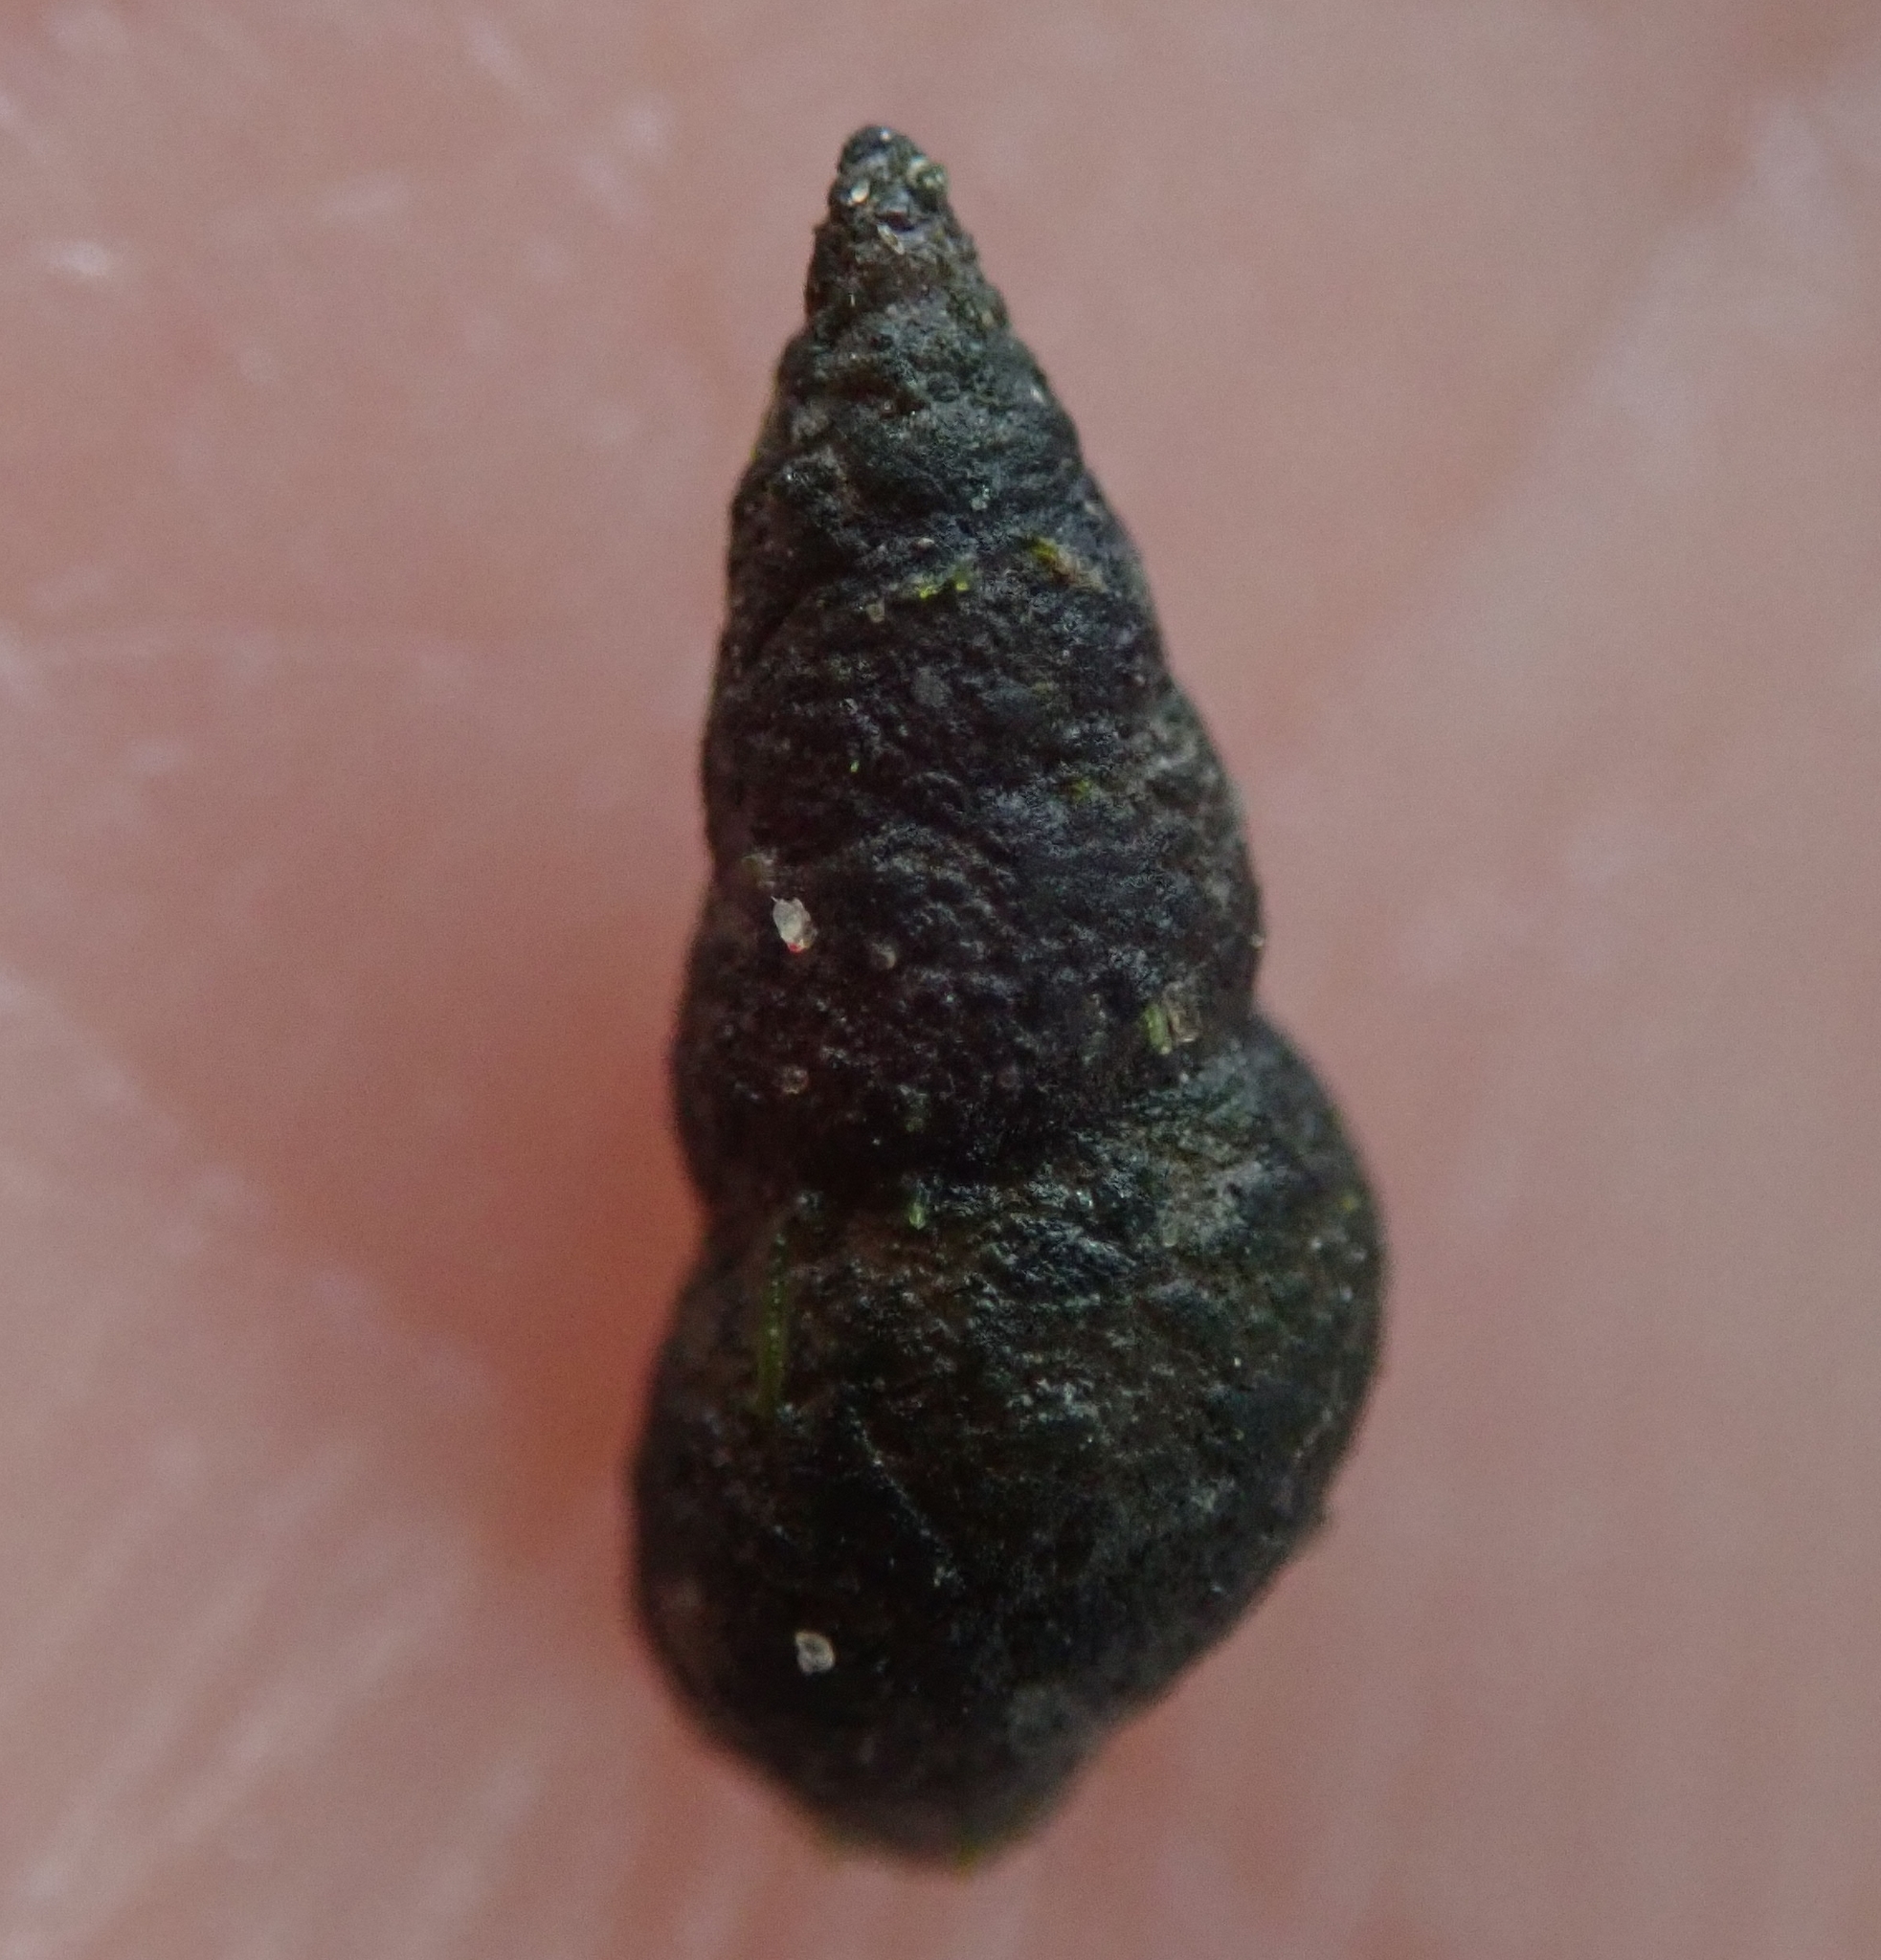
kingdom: Animalia
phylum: Mollusca
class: Gastropoda
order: Littorinimorpha
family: Hydrobiidae
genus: Peringia
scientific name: Peringia ulvae
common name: Laver spire shell
